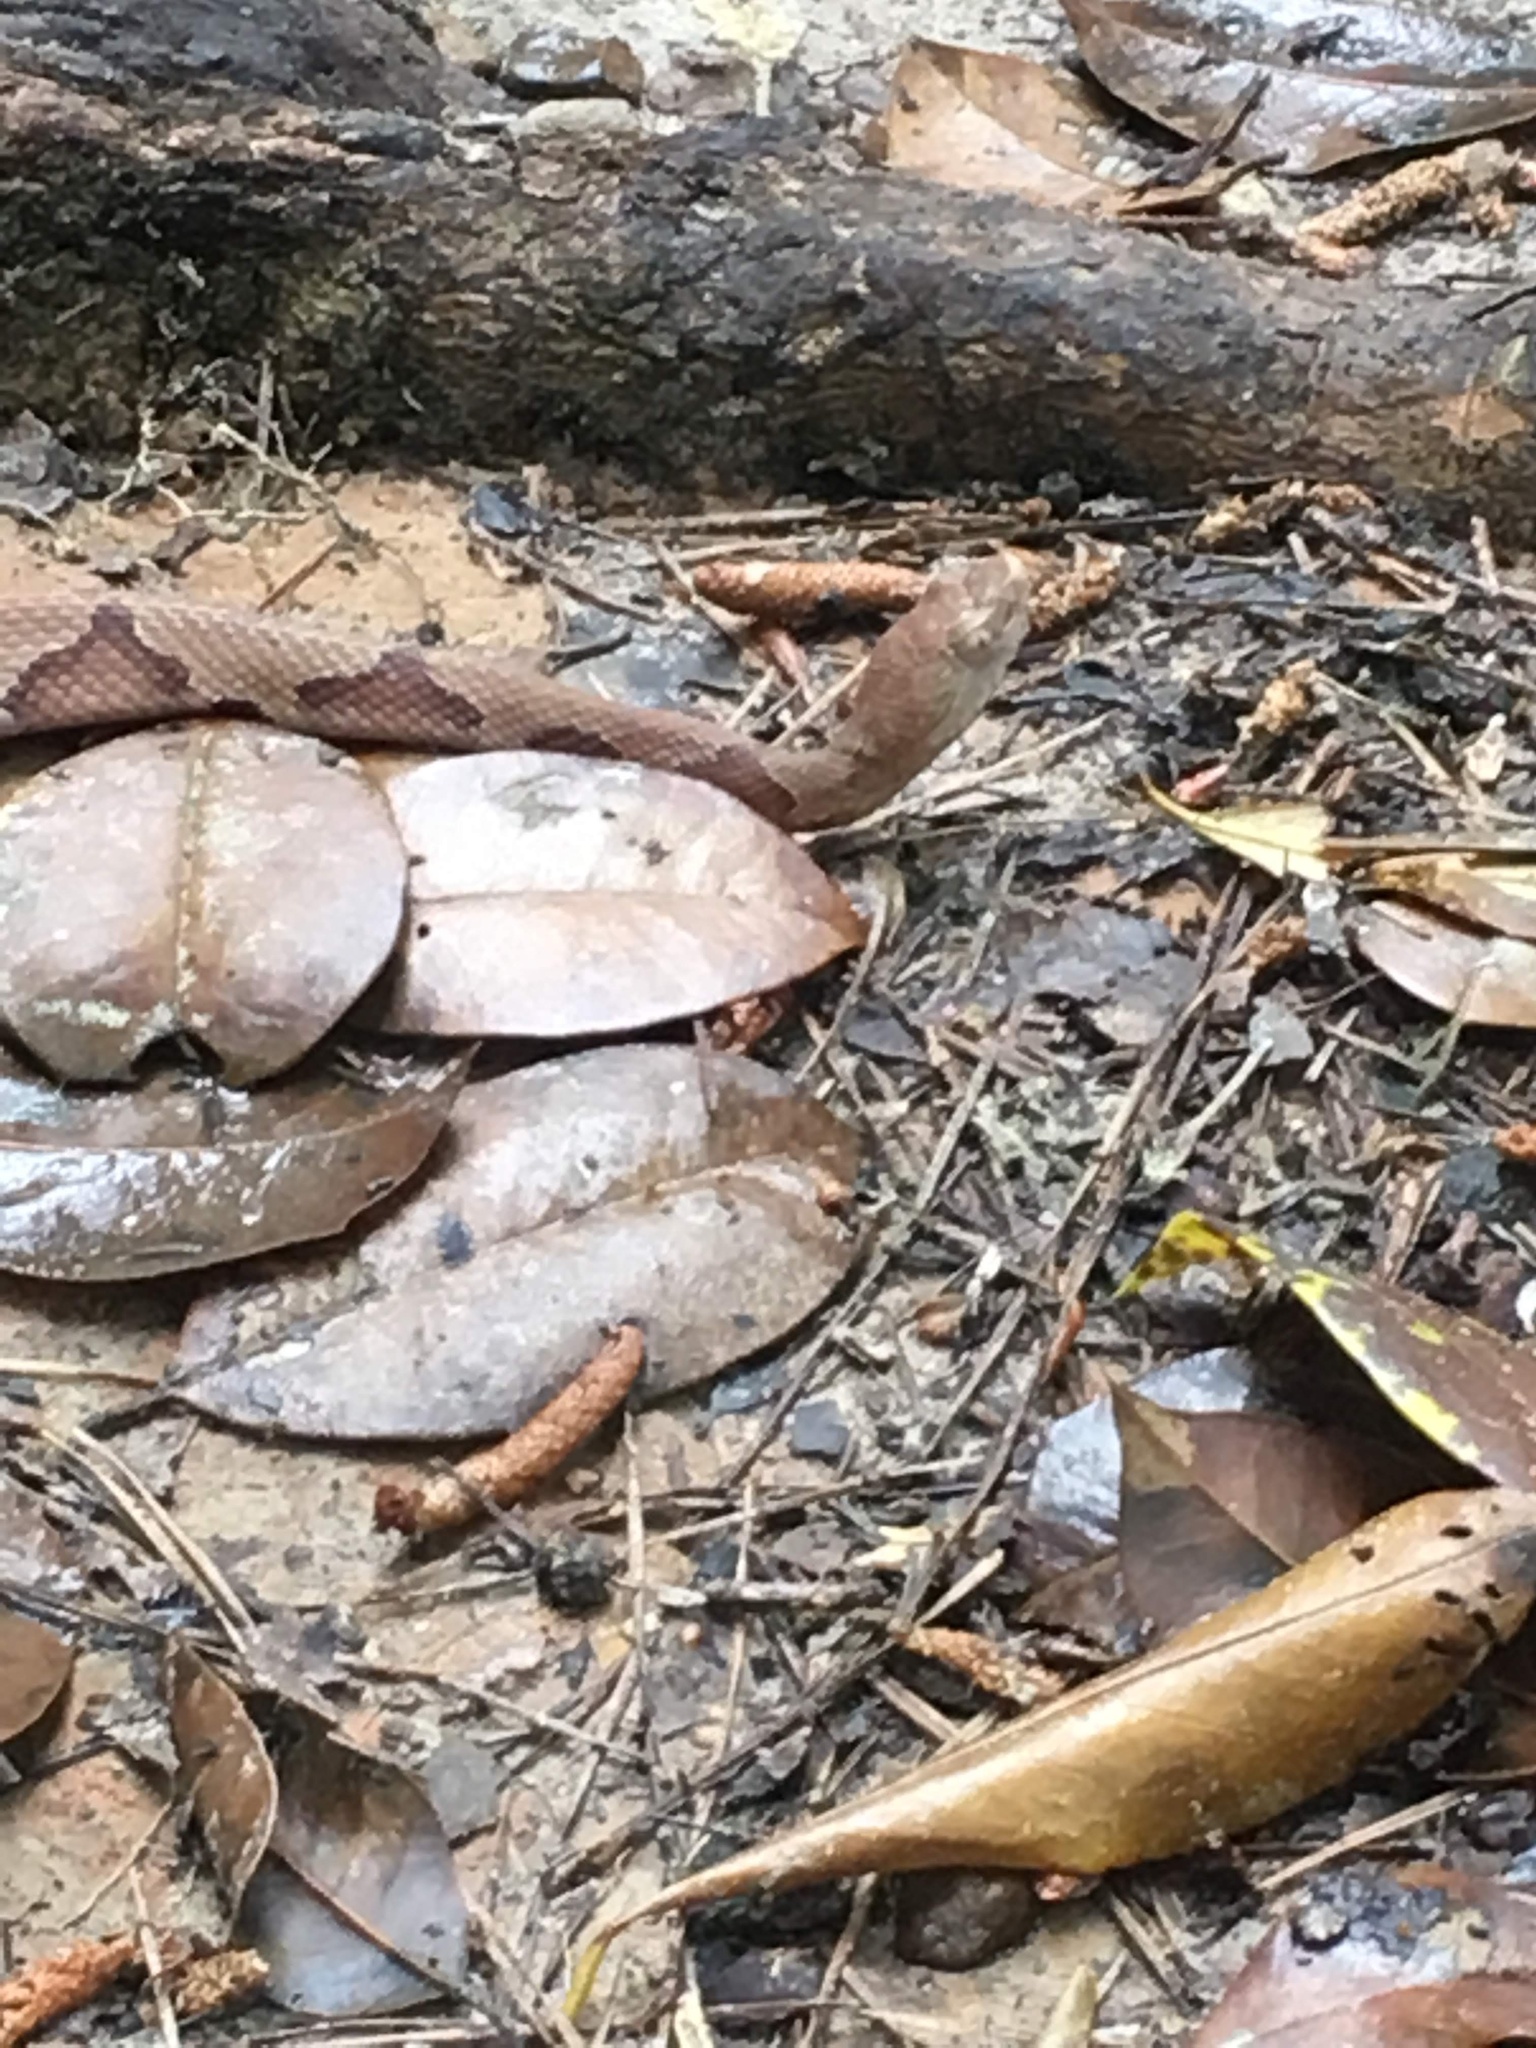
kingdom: Animalia
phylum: Chordata
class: Squamata
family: Viperidae
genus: Agkistrodon
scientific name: Agkistrodon contortrix
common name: Northern copperhead
